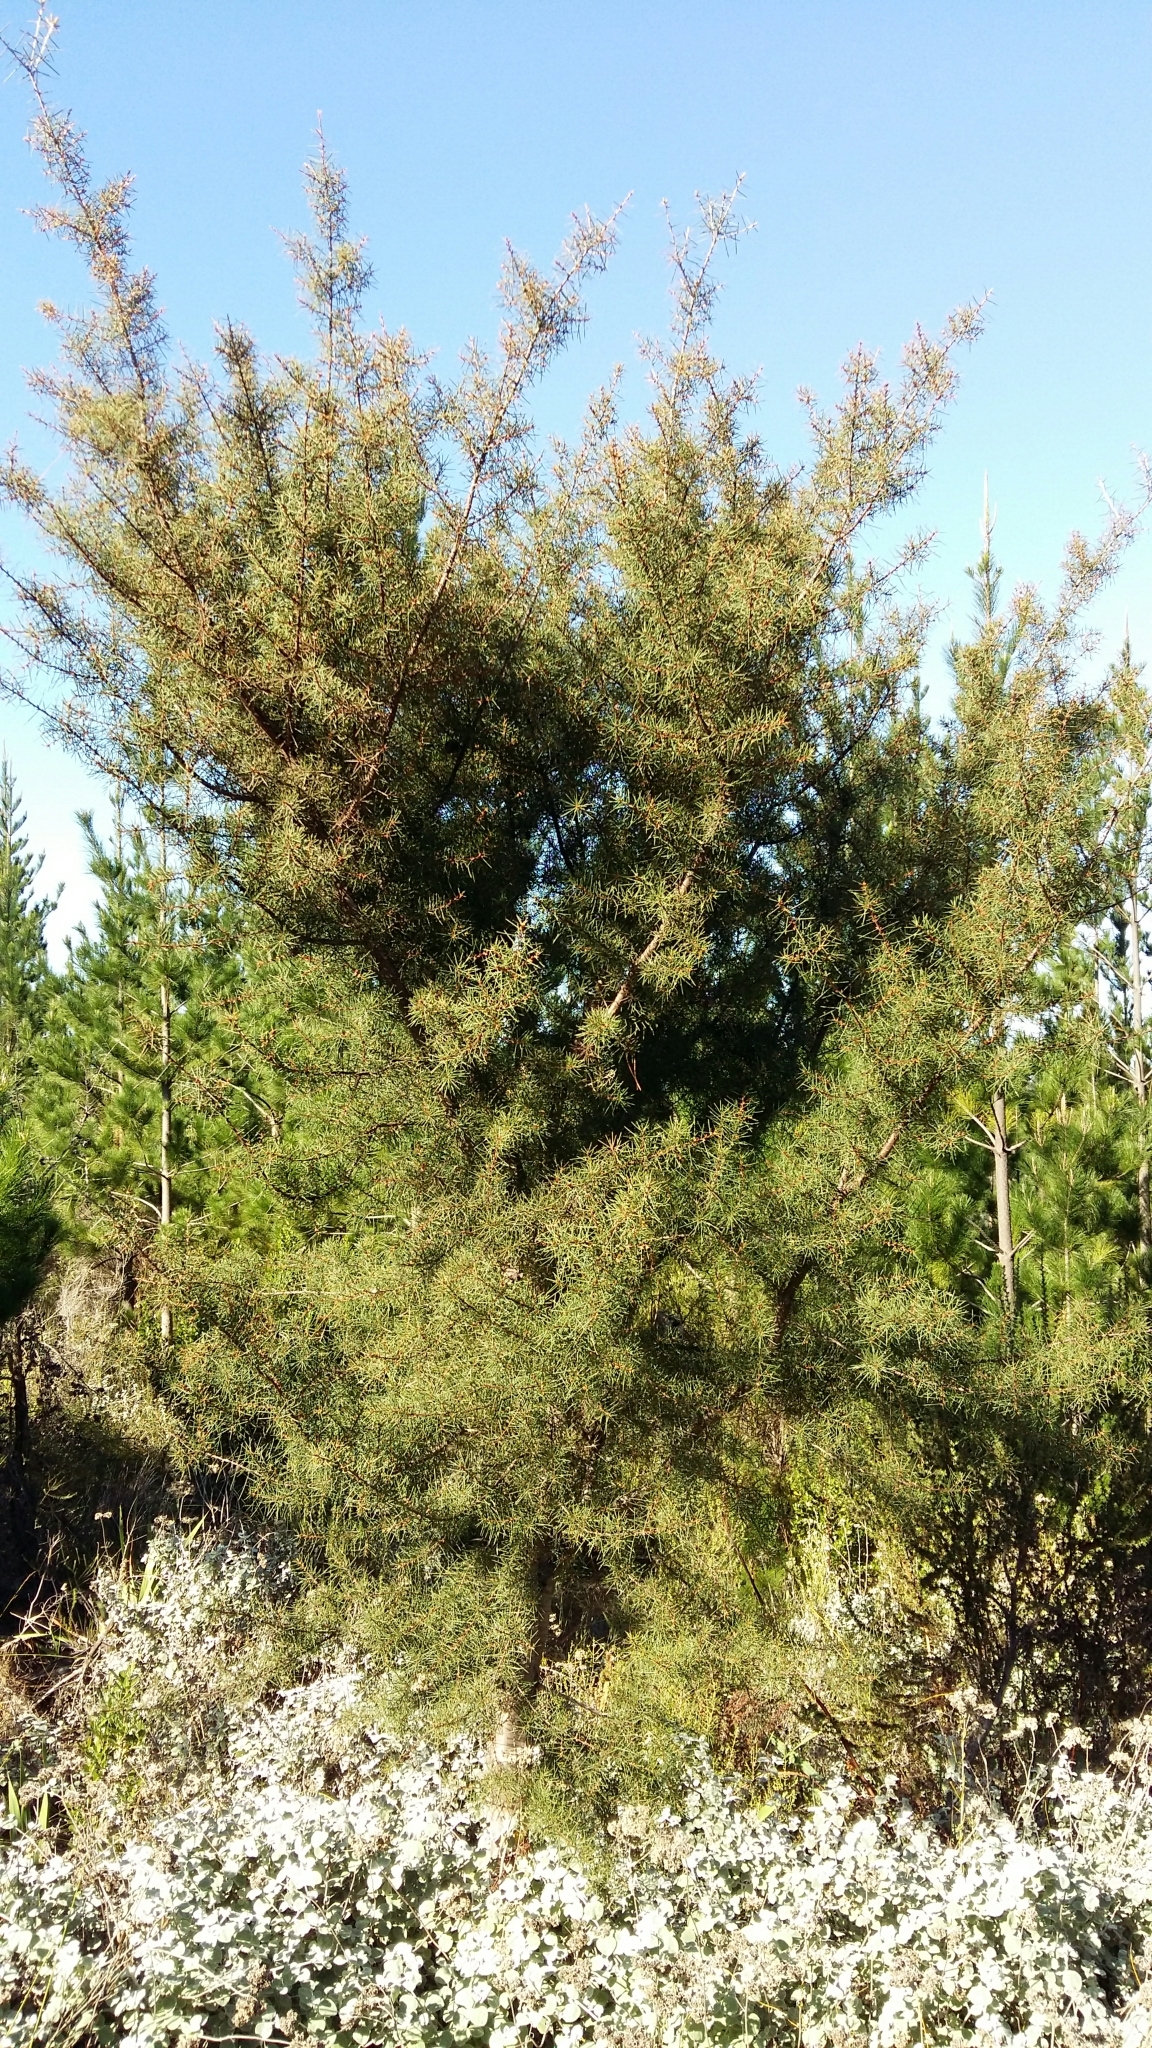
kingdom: Plantae
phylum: Tracheophyta
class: Magnoliopsida
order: Proteales
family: Proteaceae
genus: Hakea
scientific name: Hakea sericea
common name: Needle bush
